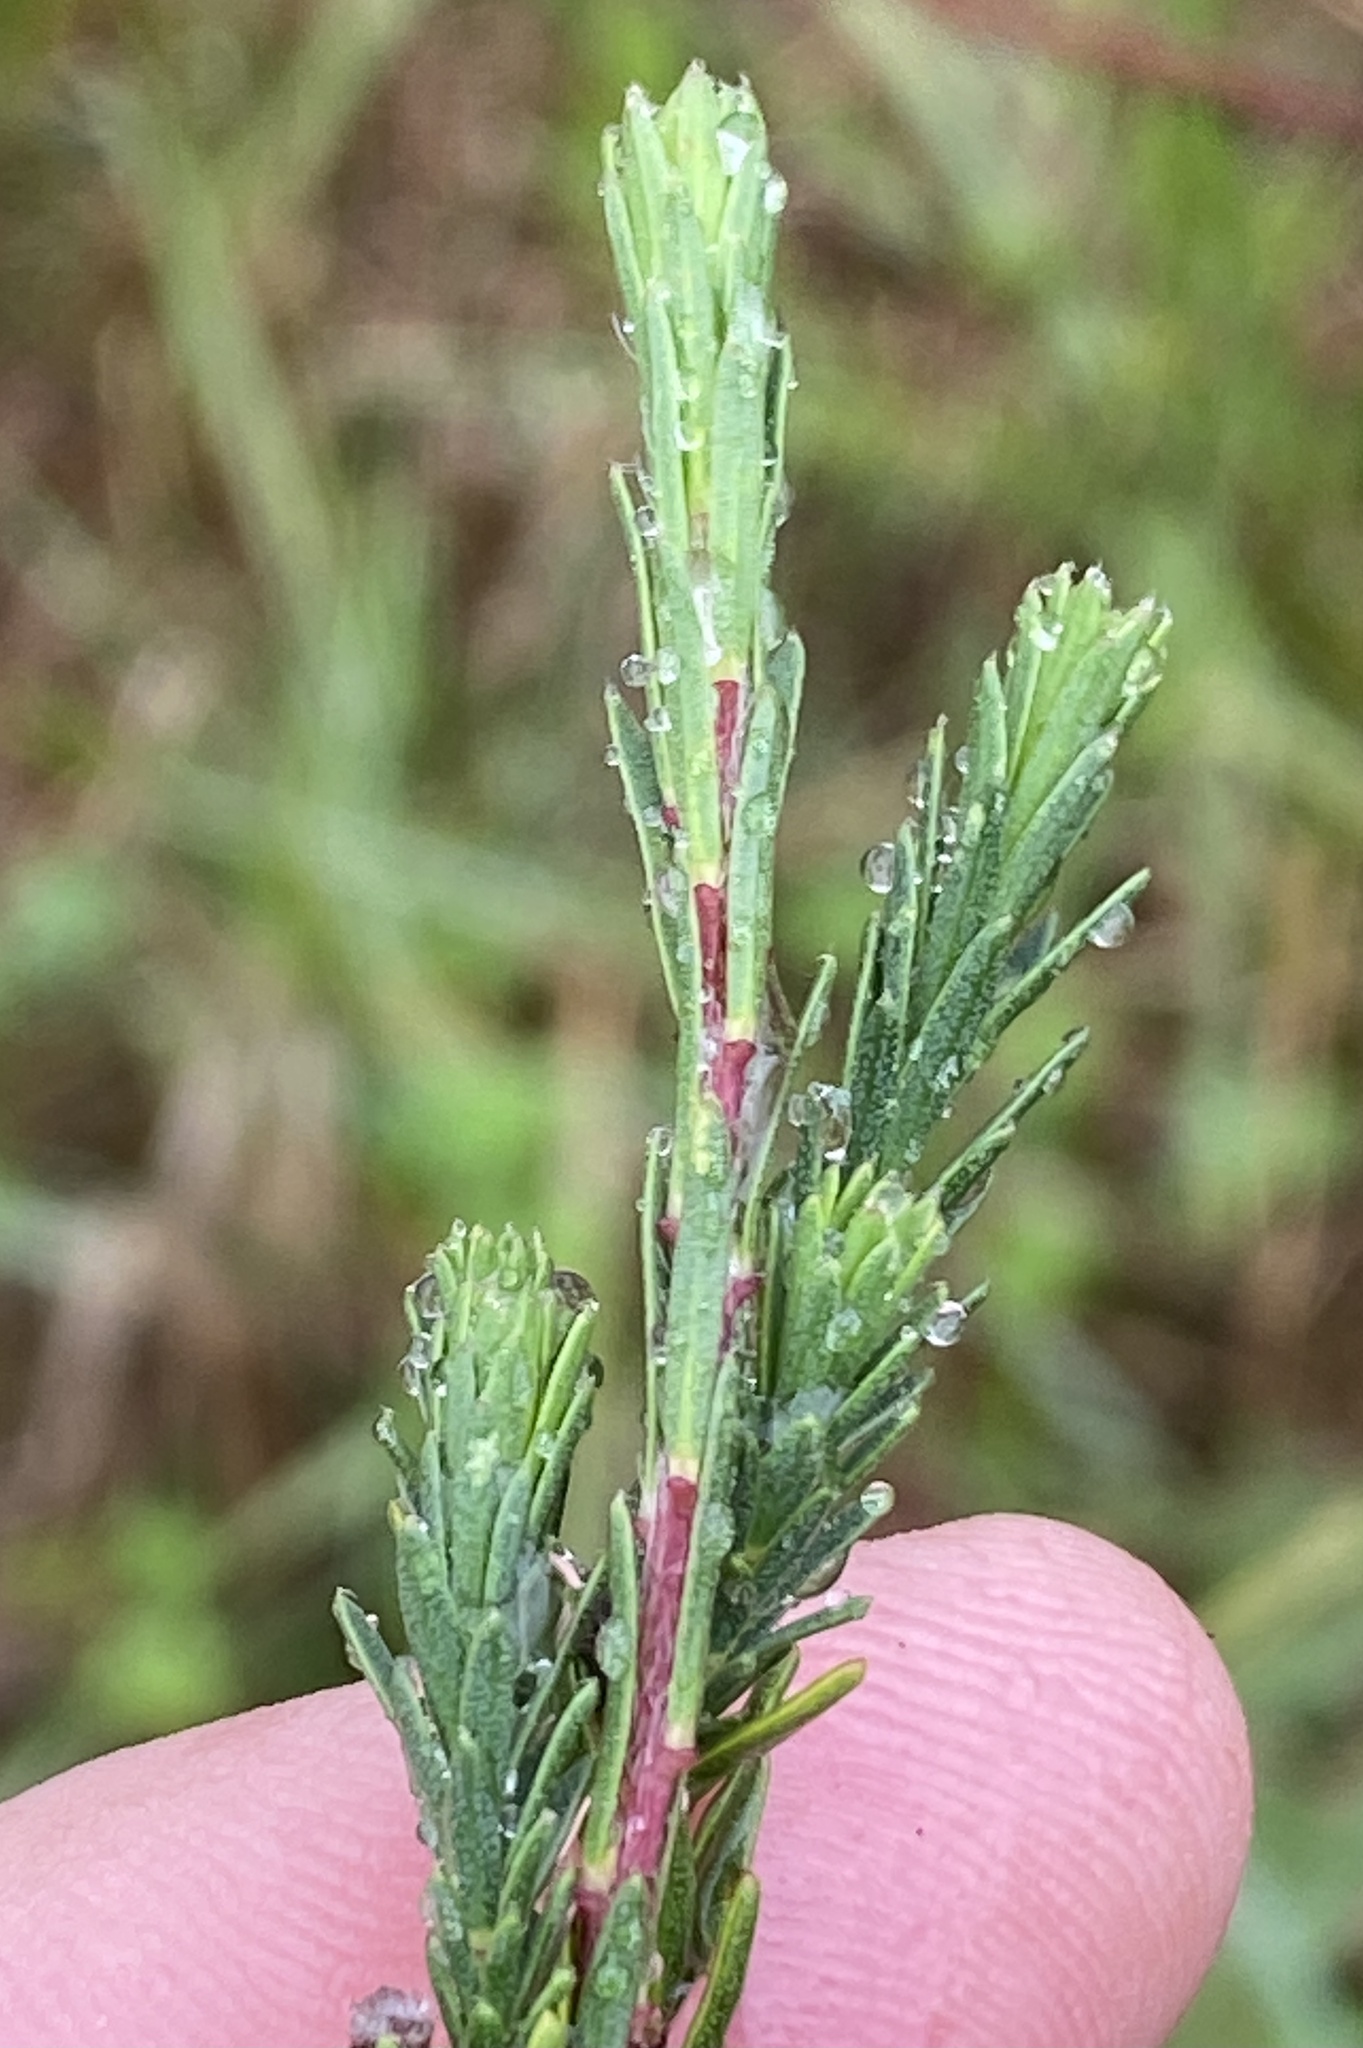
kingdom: Plantae
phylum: Tracheophyta
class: Magnoliopsida
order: Malvales
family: Thymelaeaceae
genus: Gnidia
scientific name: Gnidia squarrosa
